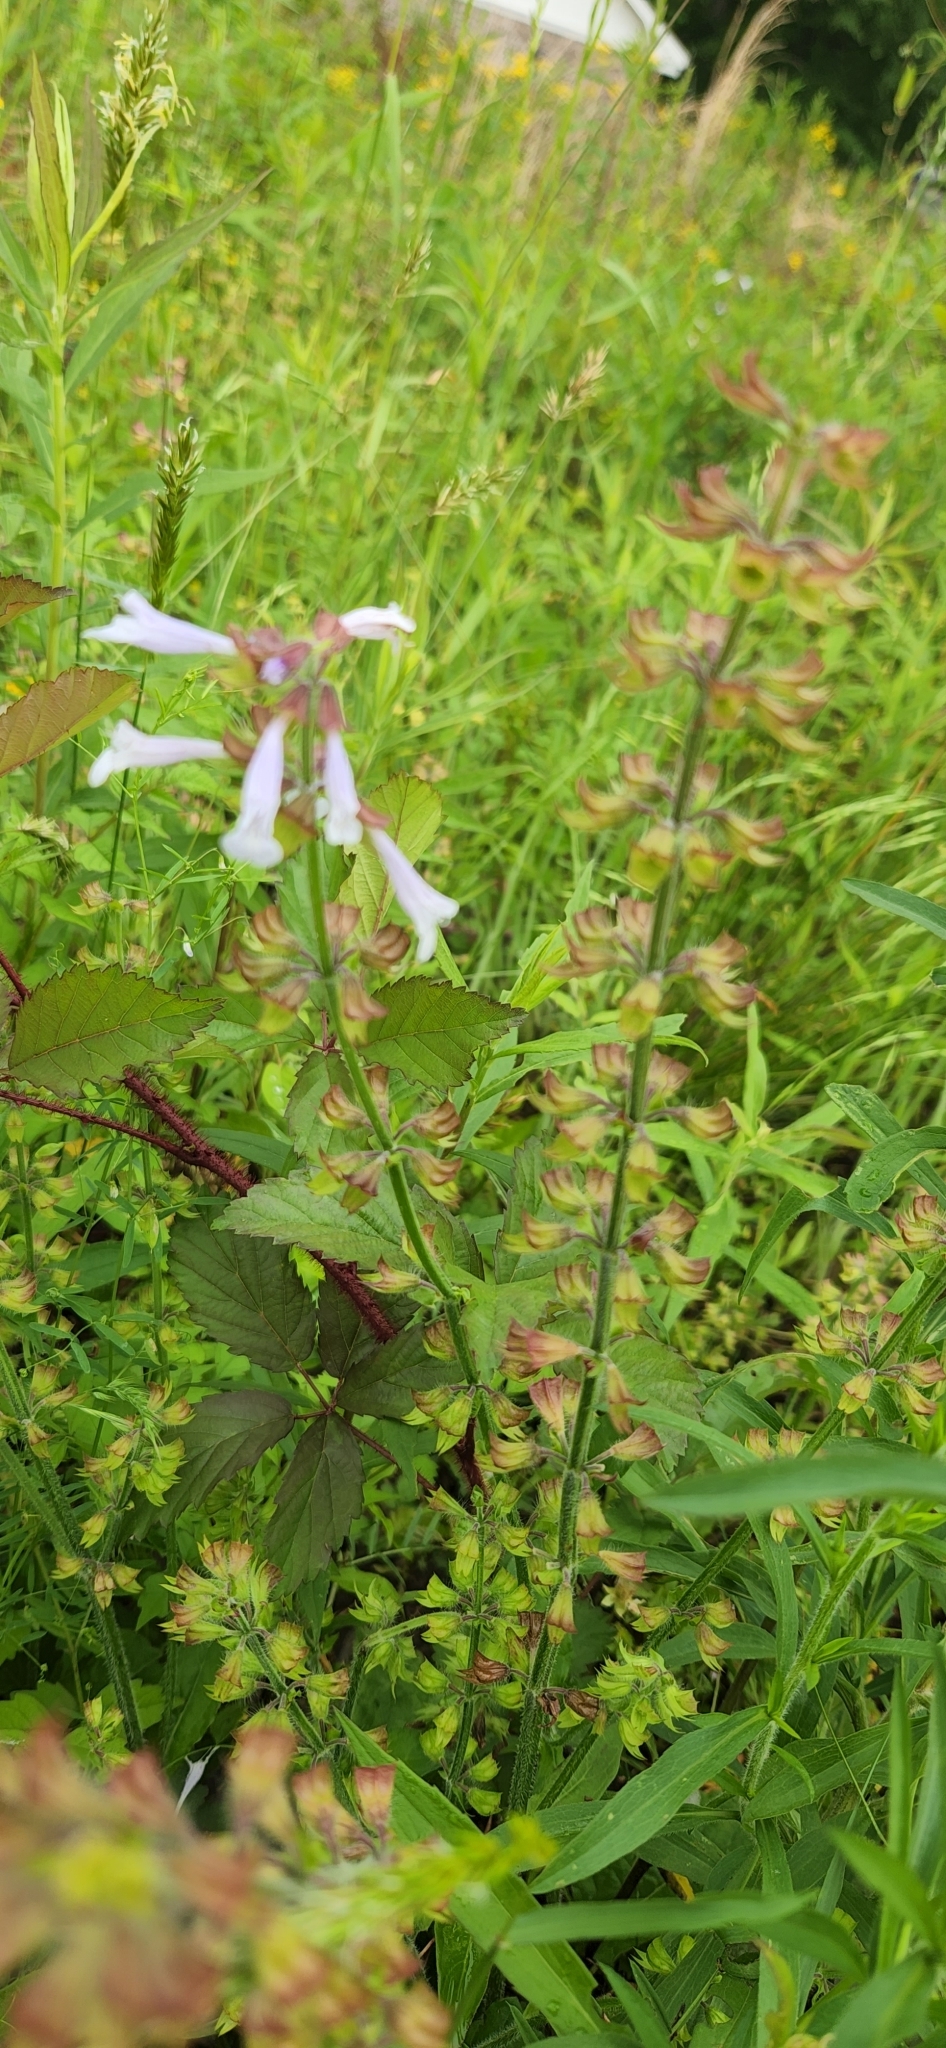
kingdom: Plantae
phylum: Tracheophyta
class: Magnoliopsida
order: Lamiales
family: Lamiaceae
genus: Salvia
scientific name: Salvia lyrata
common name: Cancerweed
